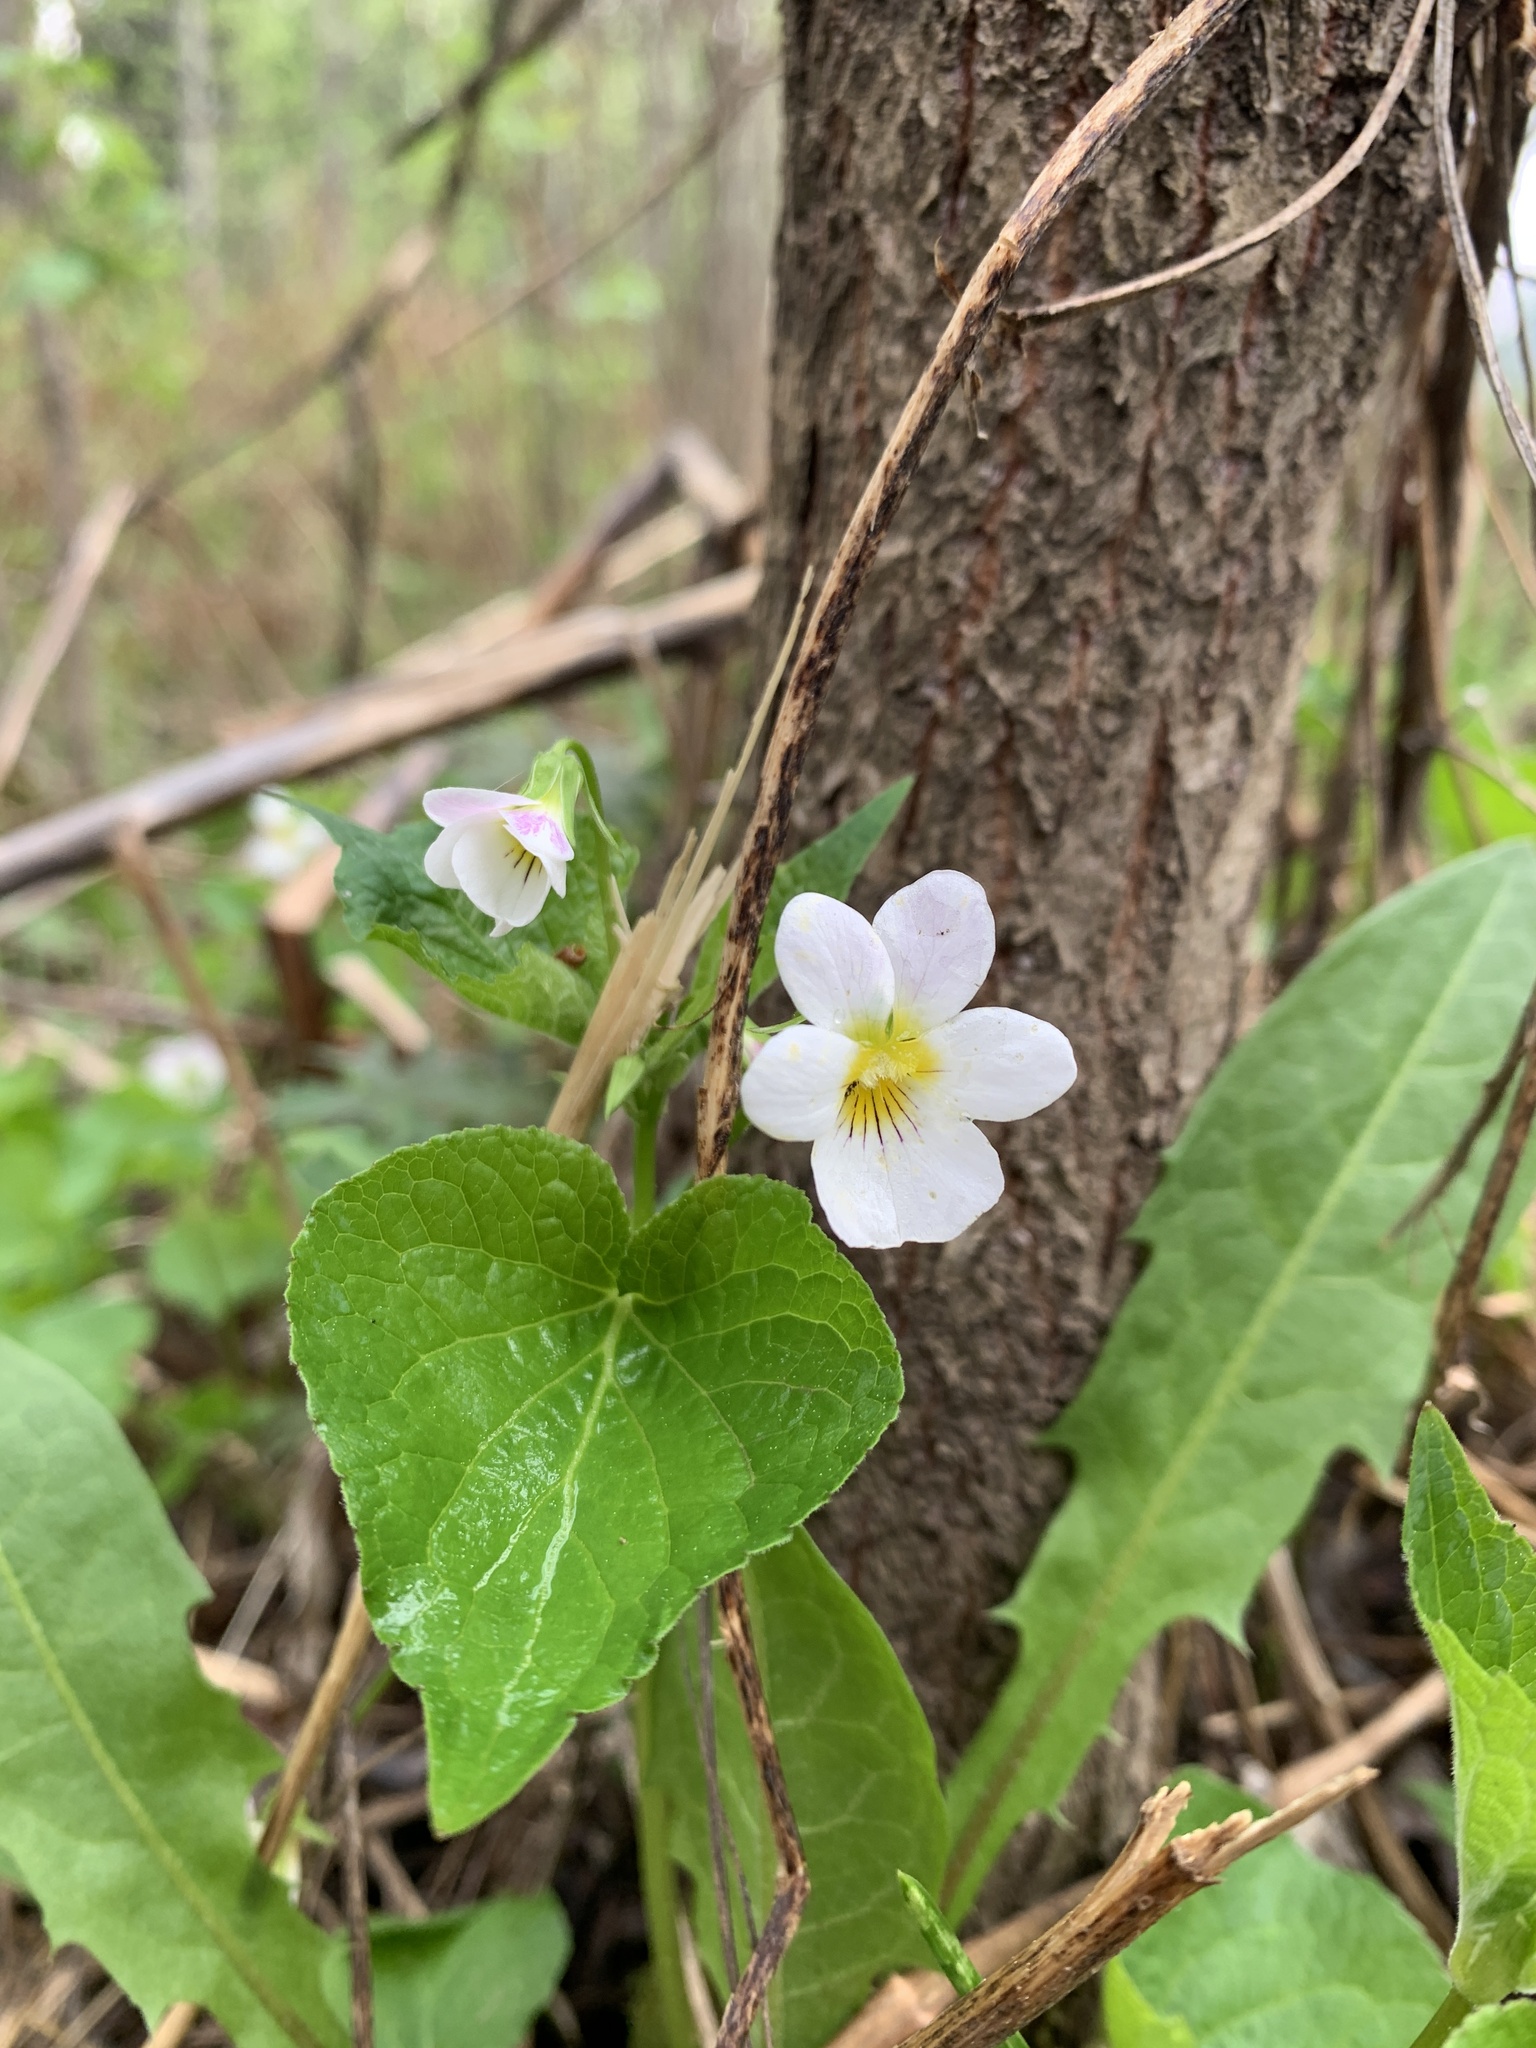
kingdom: Plantae
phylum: Tracheophyta
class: Magnoliopsida
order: Malpighiales
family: Violaceae
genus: Viola
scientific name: Viola canadensis
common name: Canada violet
